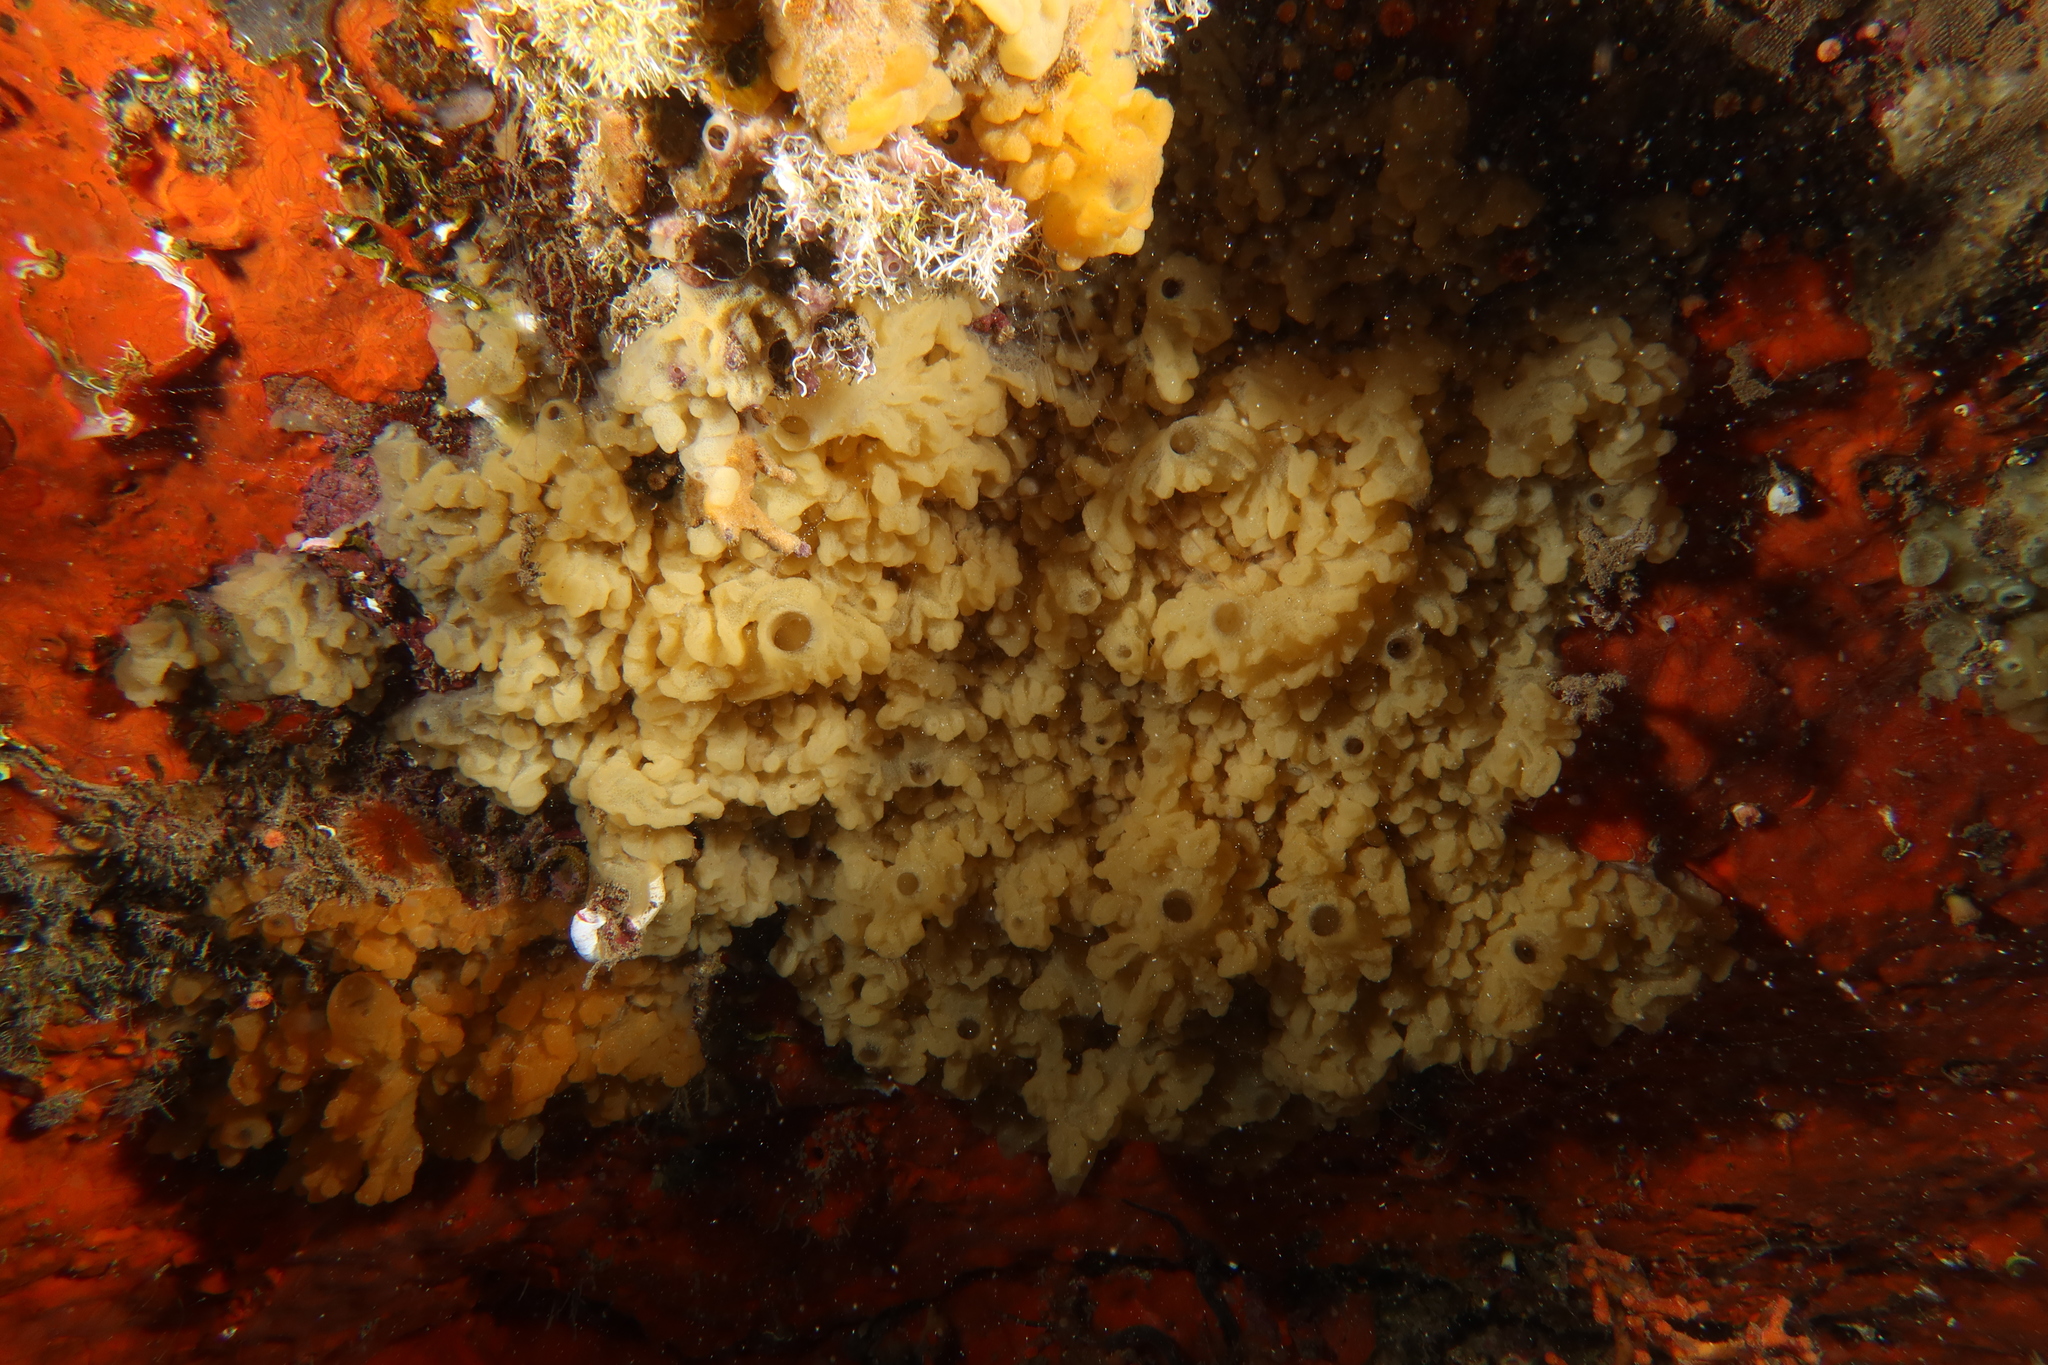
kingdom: Animalia
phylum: Porifera
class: Homoscleromorpha
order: Homosclerophorida
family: Oscarellidae
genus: Oscarella
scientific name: Oscarella balibaloi
